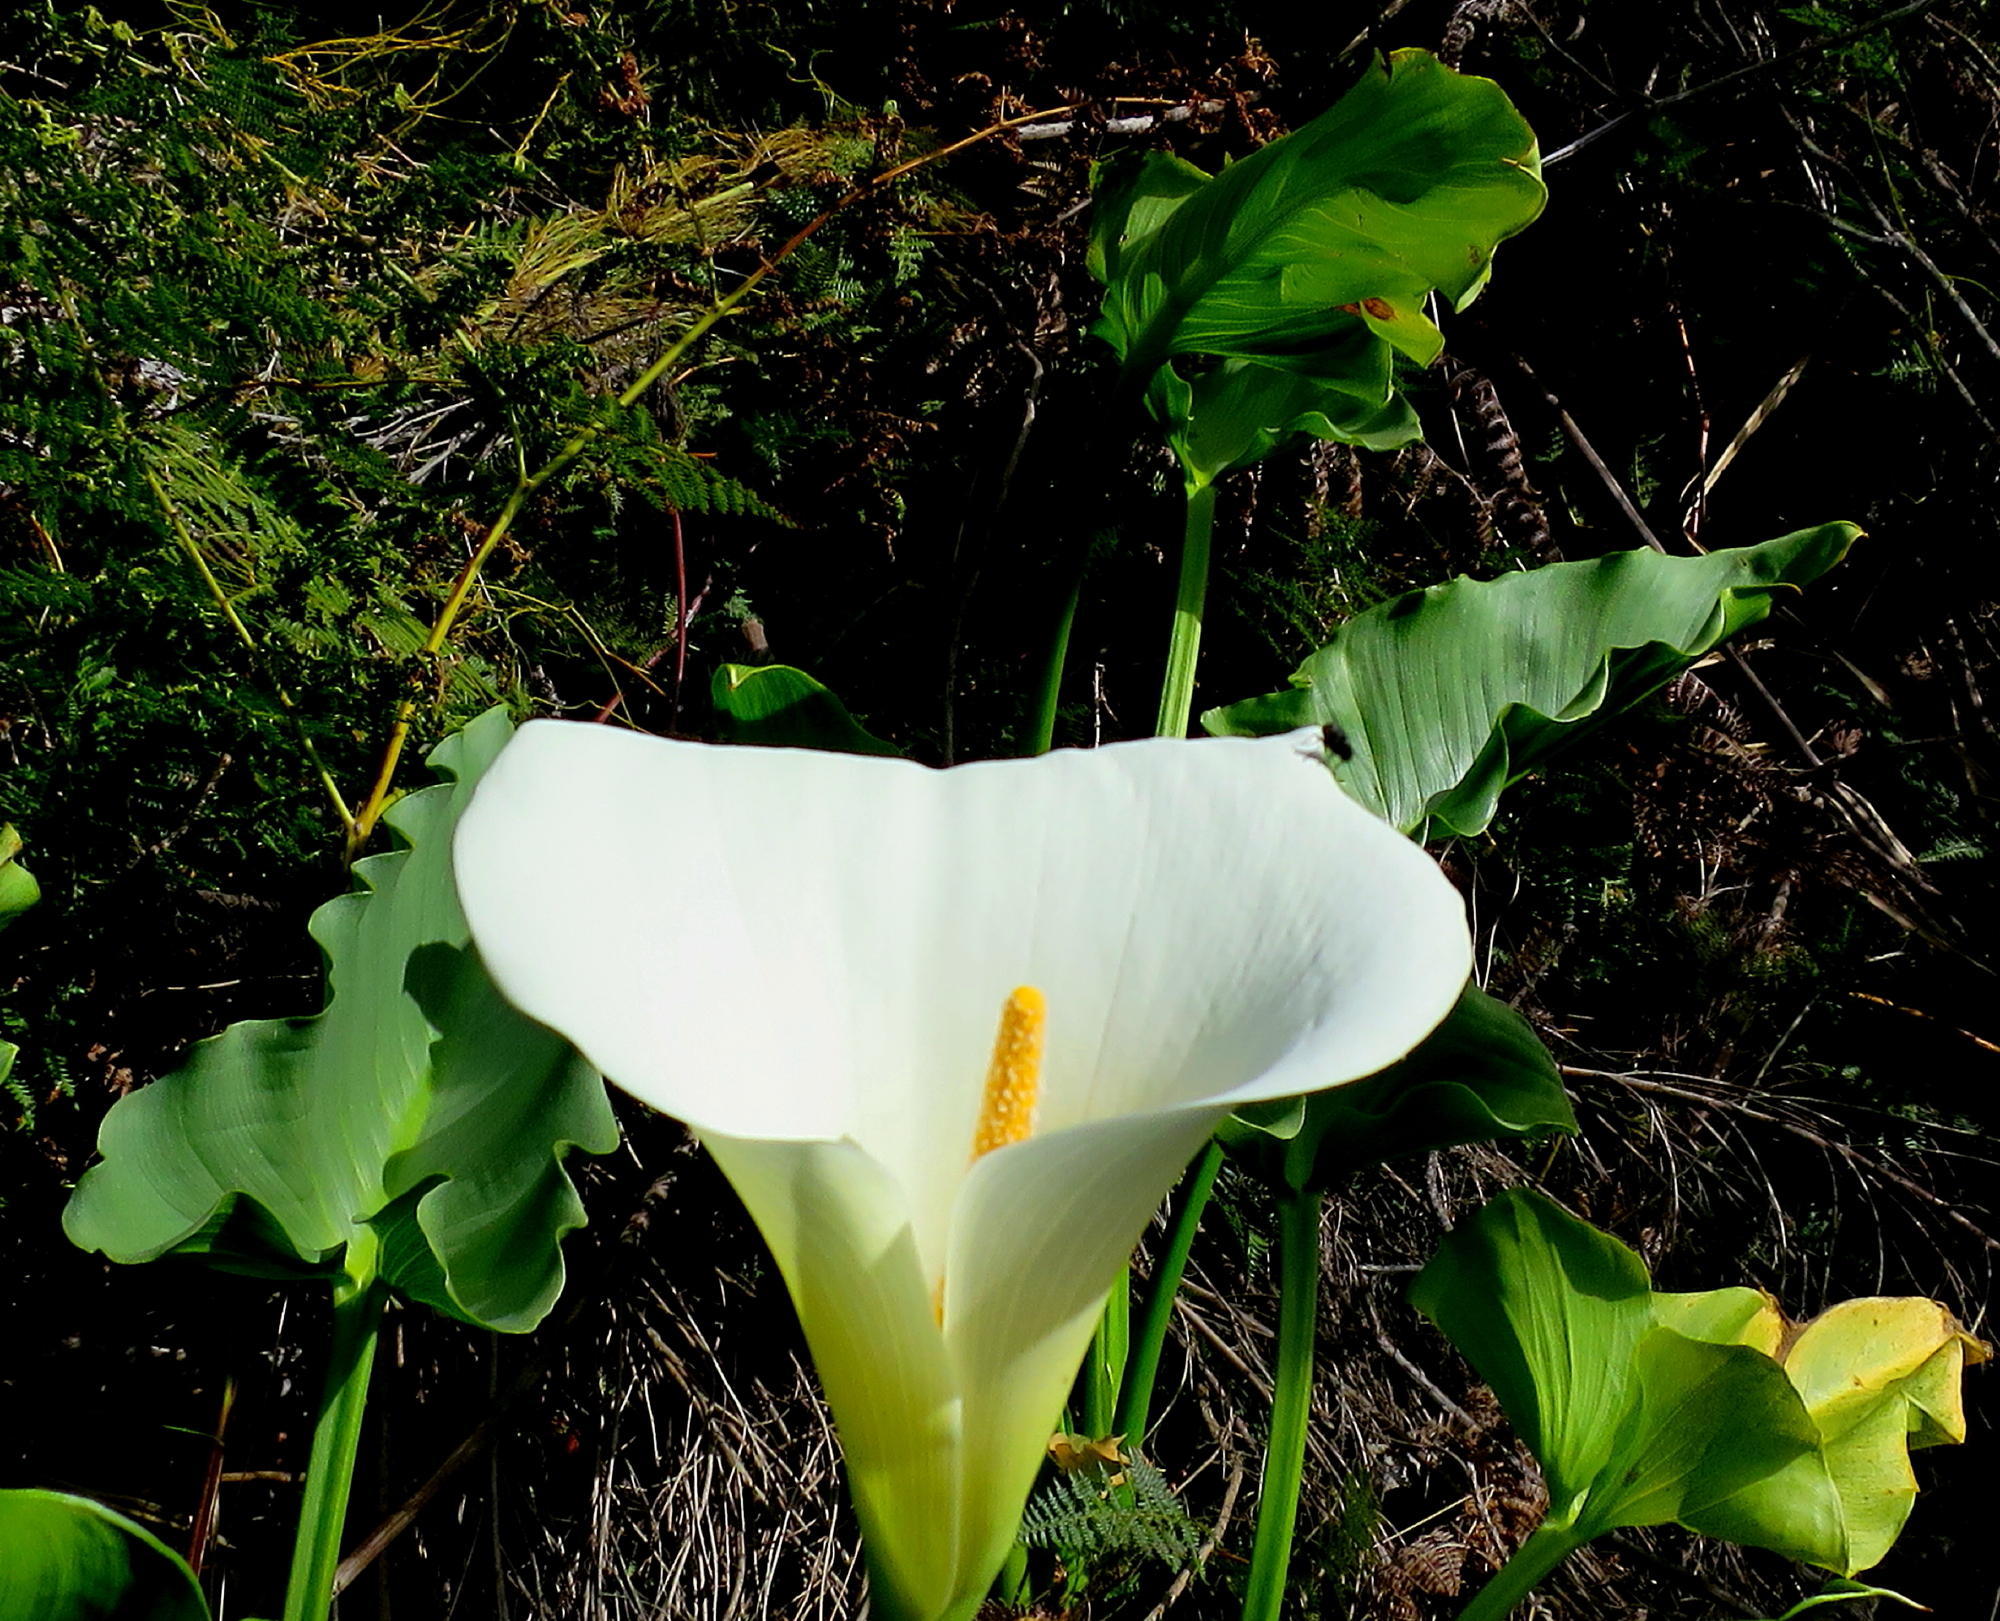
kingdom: Plantae
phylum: Tracheophyta
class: Liliopsida
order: Alismatales
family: Araceae
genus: Zantedeschia
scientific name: Zantedeschia aethiopica
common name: Altar-lily
